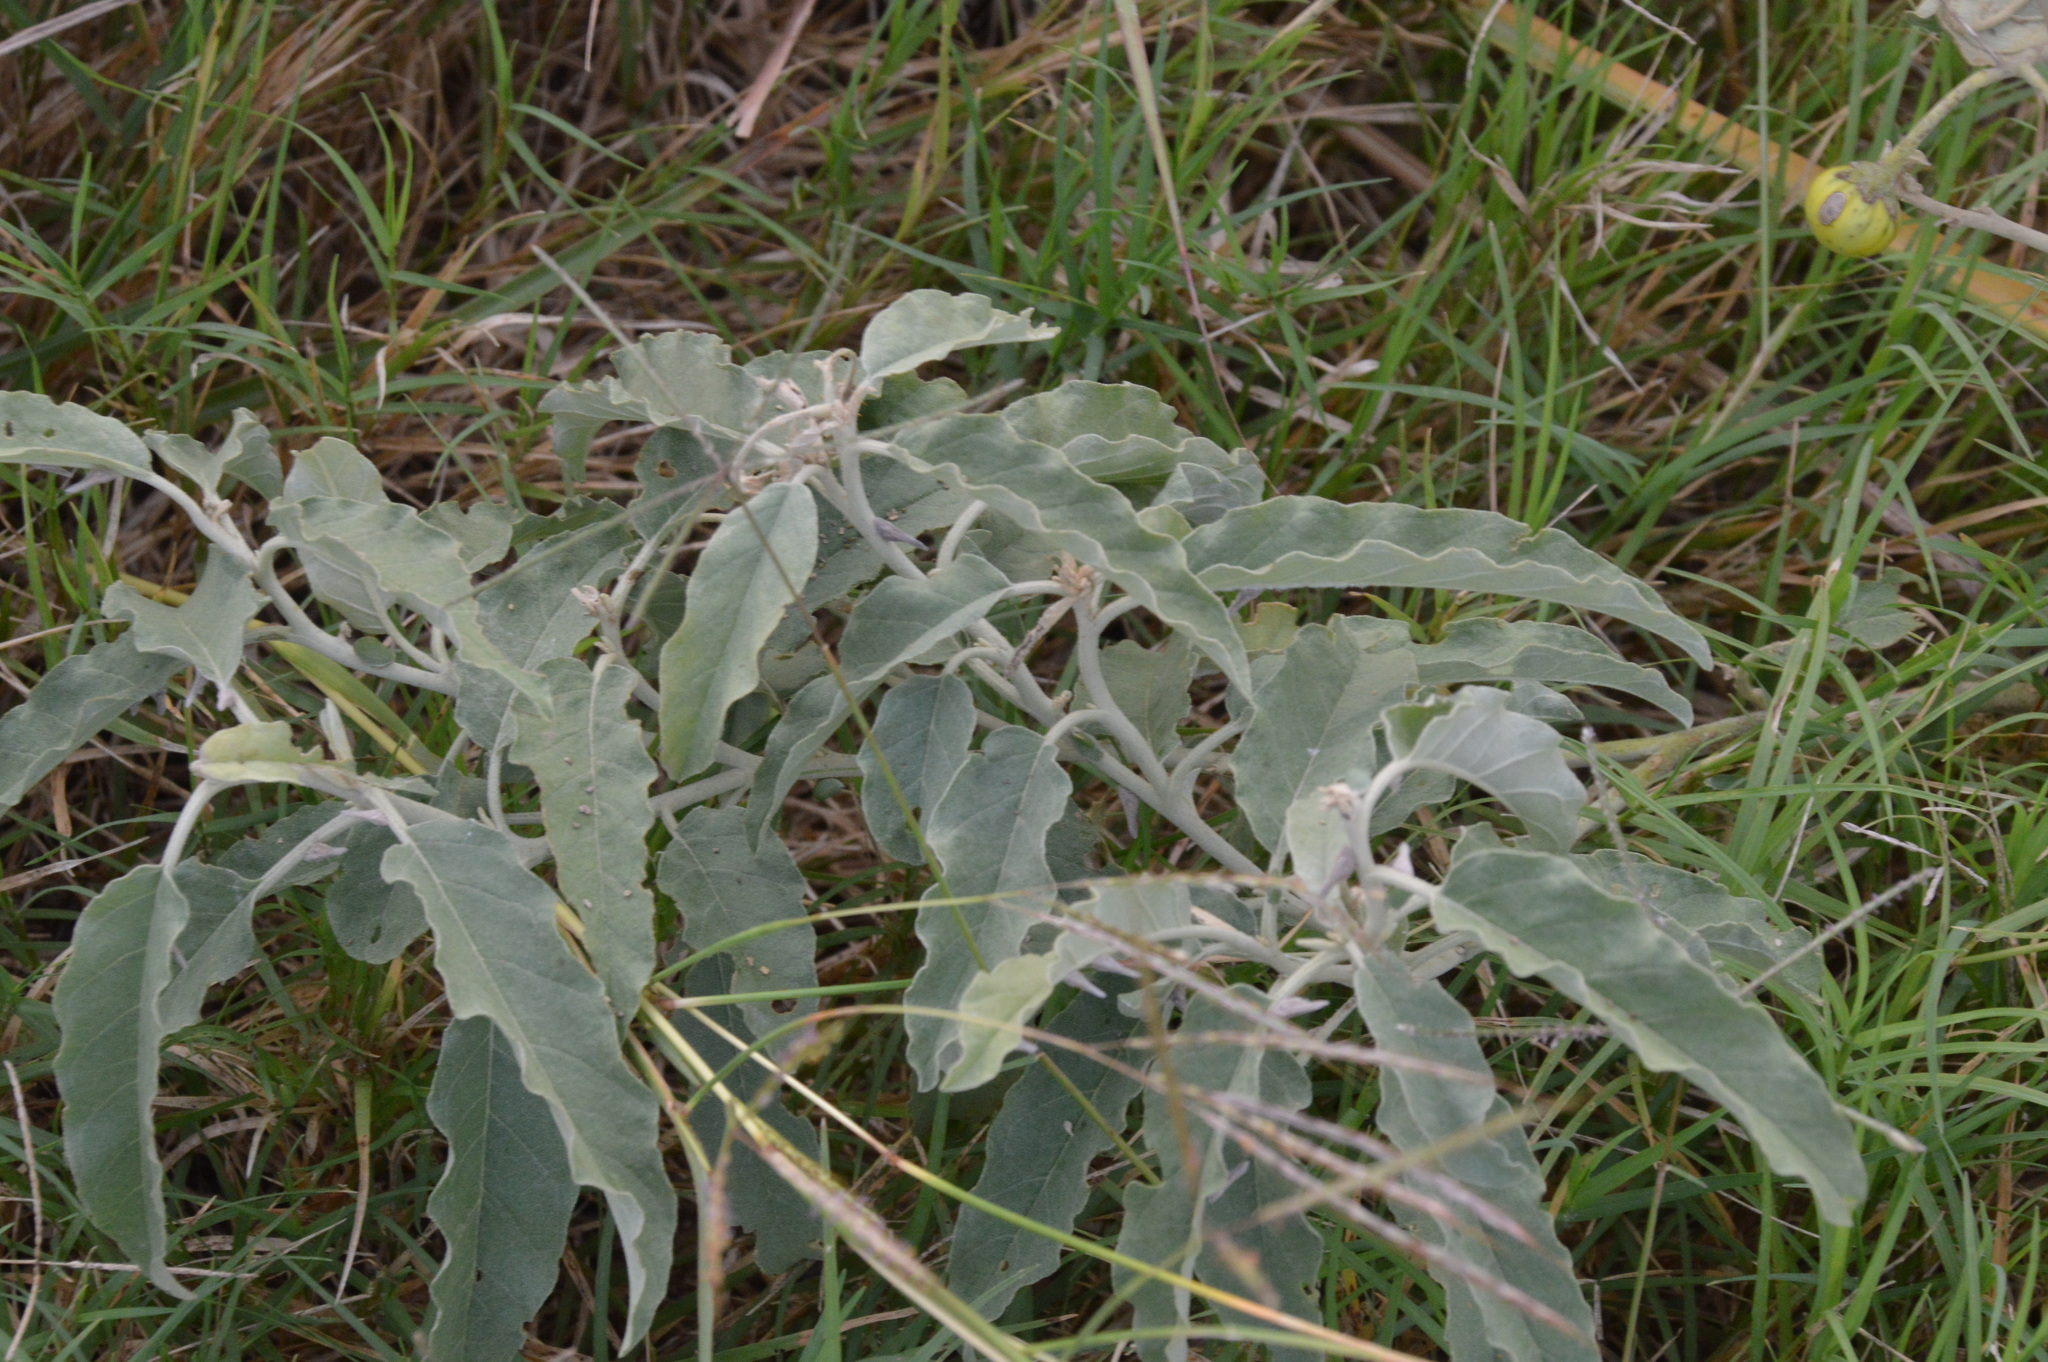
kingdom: Plantae
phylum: Tracheophyta
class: Magnoliopsida
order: Solanales
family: Solanaceae
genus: Solanum
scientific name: Solanum elaeagnifolium
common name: Silverleaf nightshade
